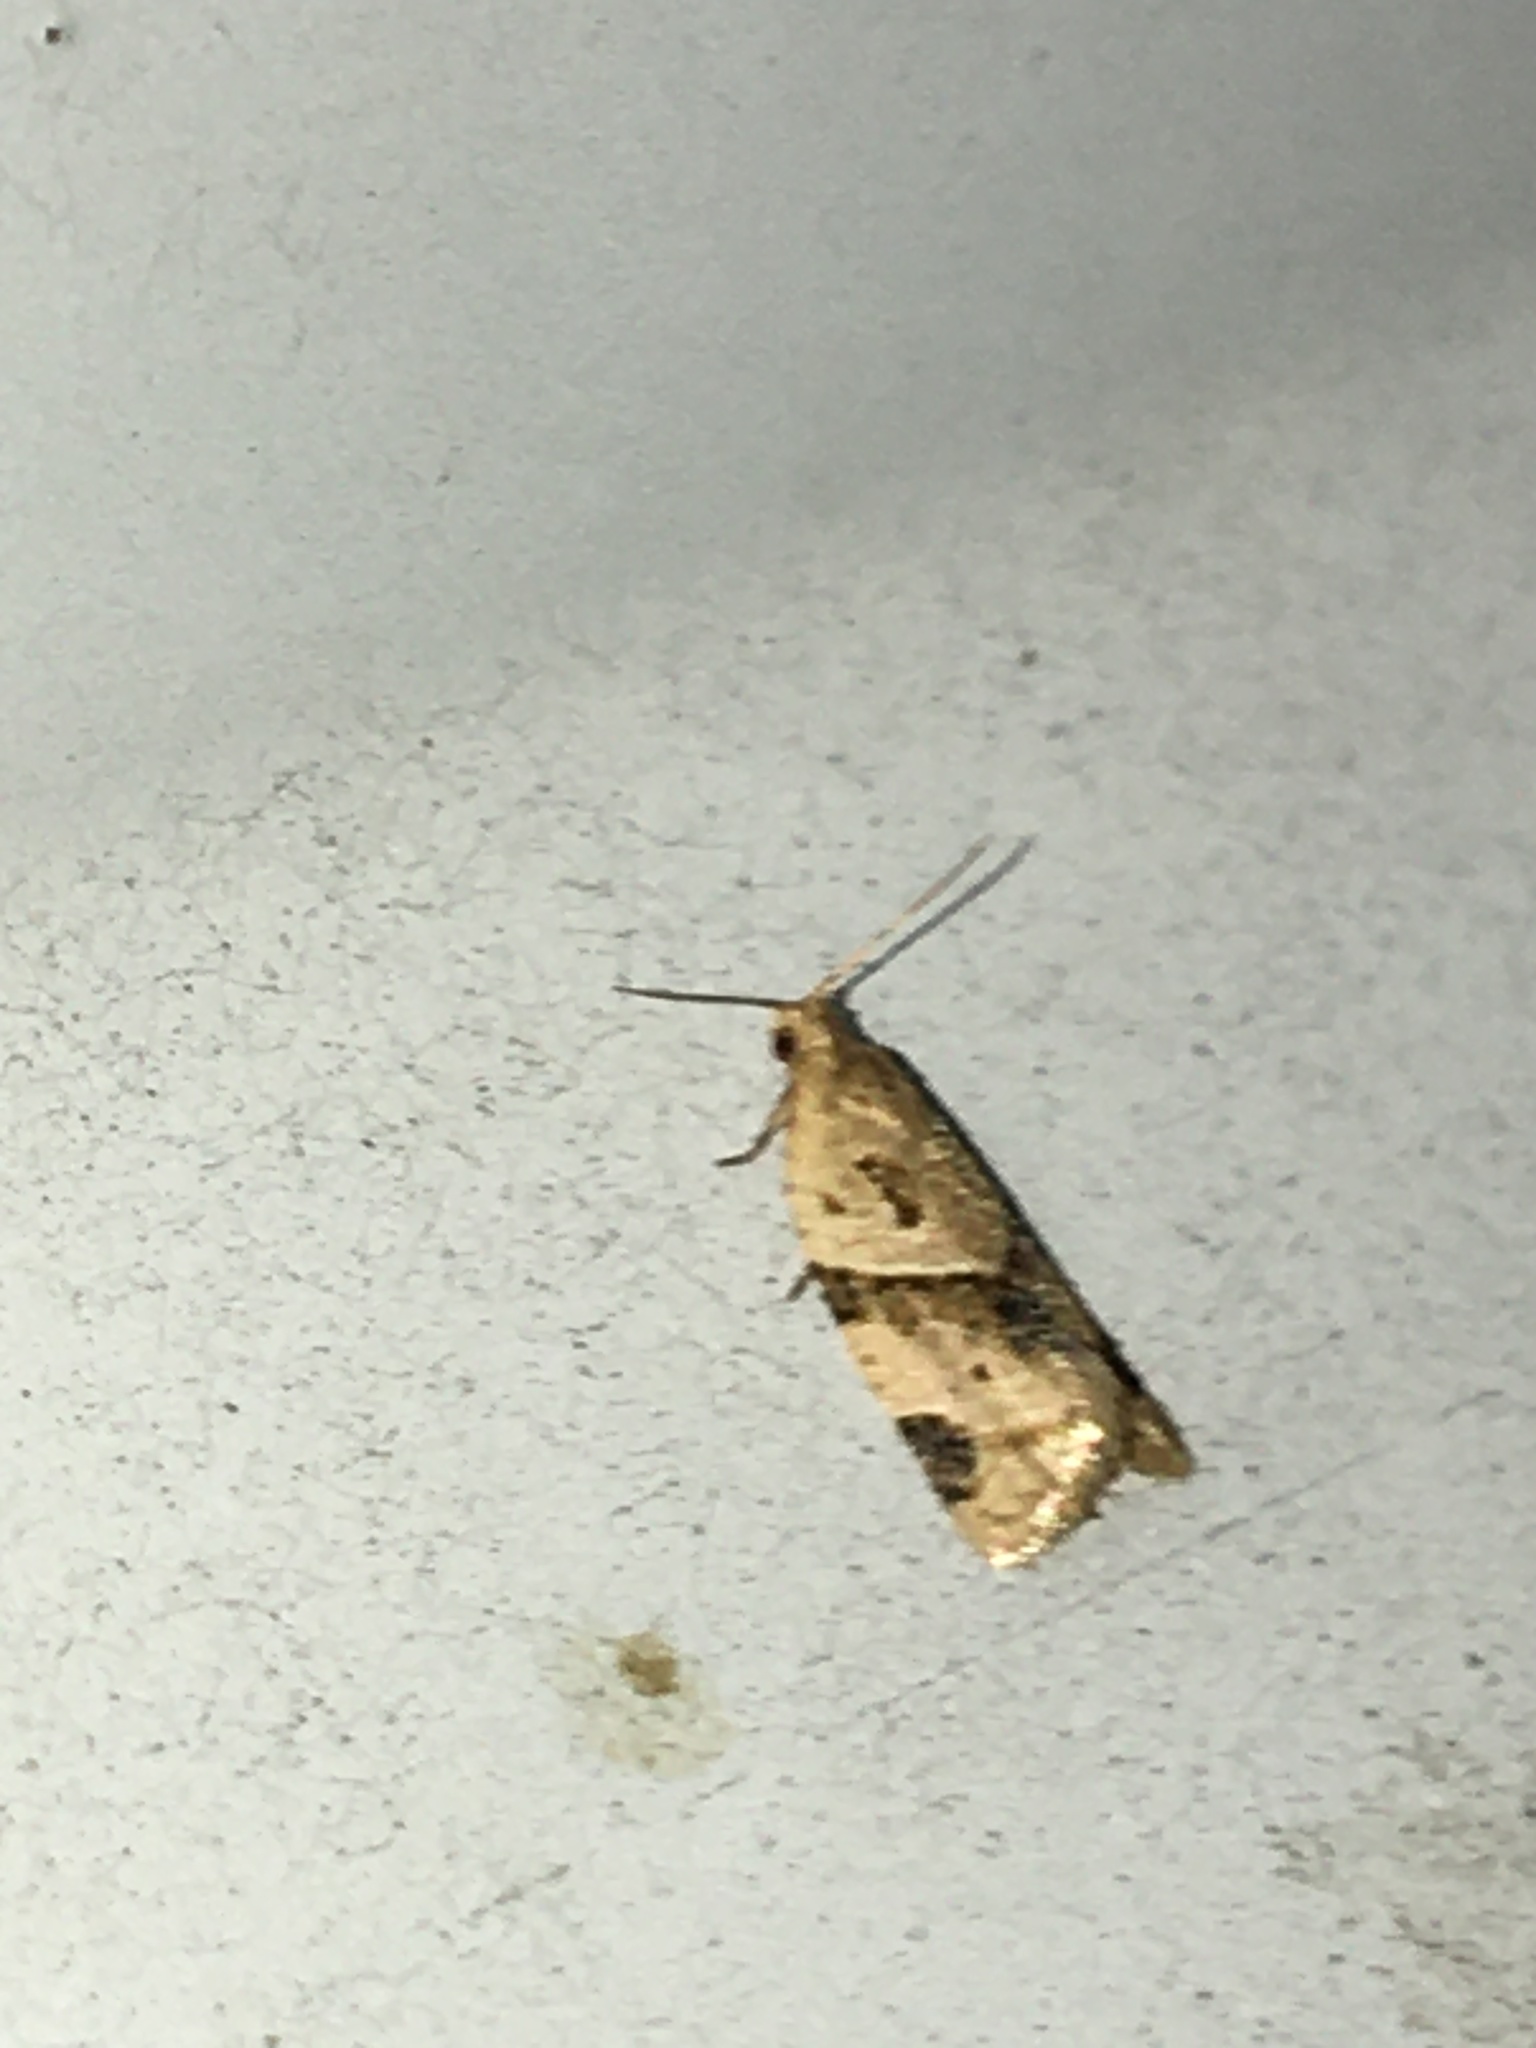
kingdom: Animalia
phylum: Arthropoda
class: Insecta
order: Lepidoptera
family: Tortricidae
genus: Clepsis
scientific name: Clepsis peritana
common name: Garden tortrix
